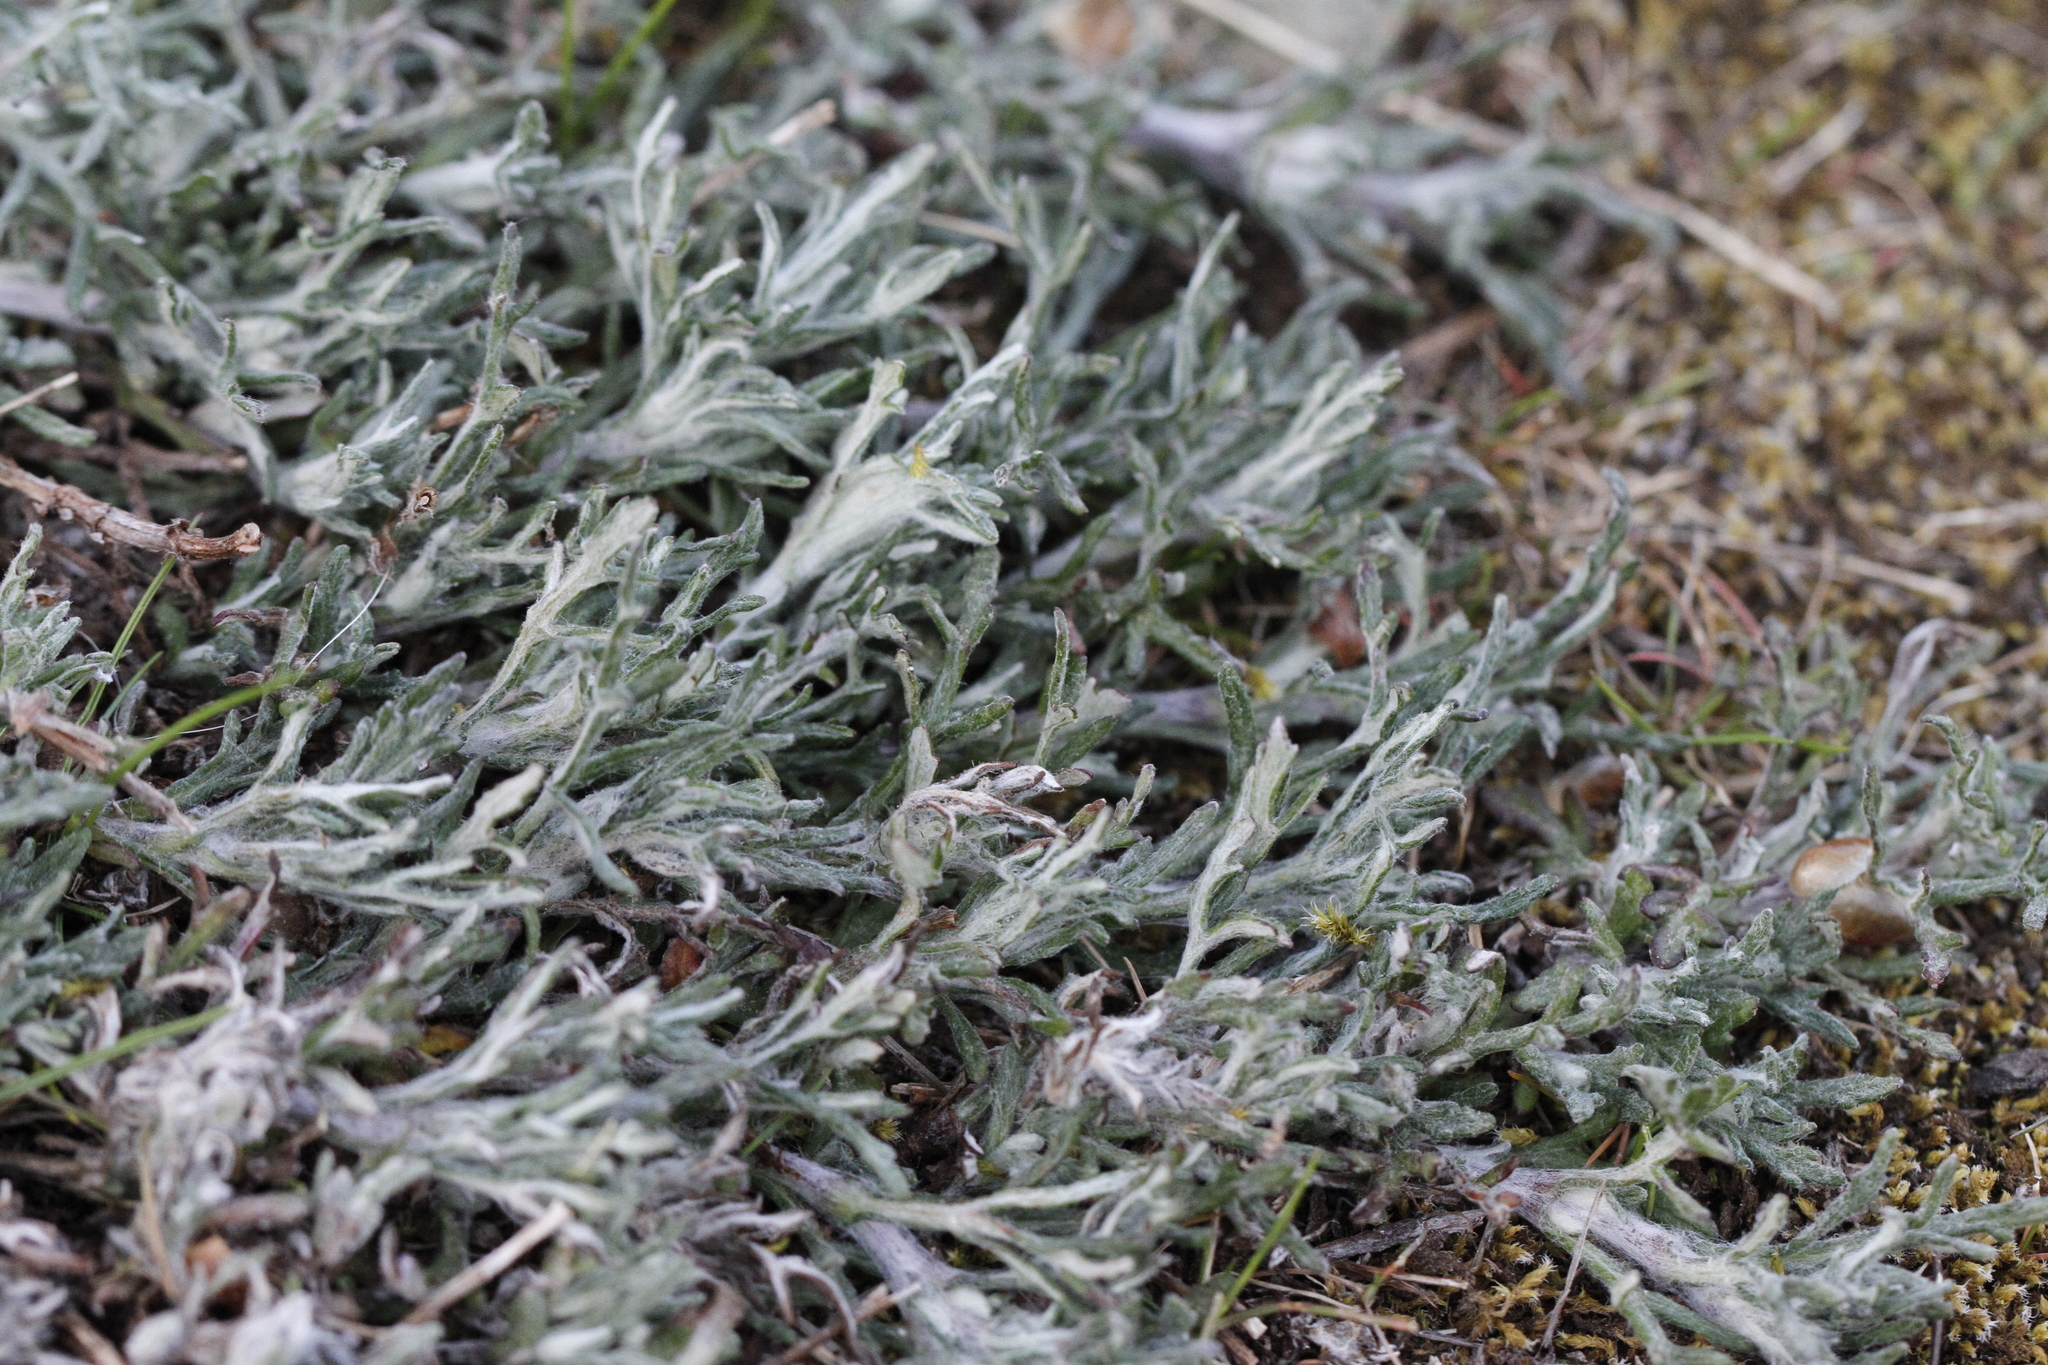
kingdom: Plantae
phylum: Tracheophyta
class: Magnoliopsida
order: Asterales
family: Asteraceae
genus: Eriophyllum
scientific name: Eriophyllum lanatum
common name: Common woolly-sunflower
